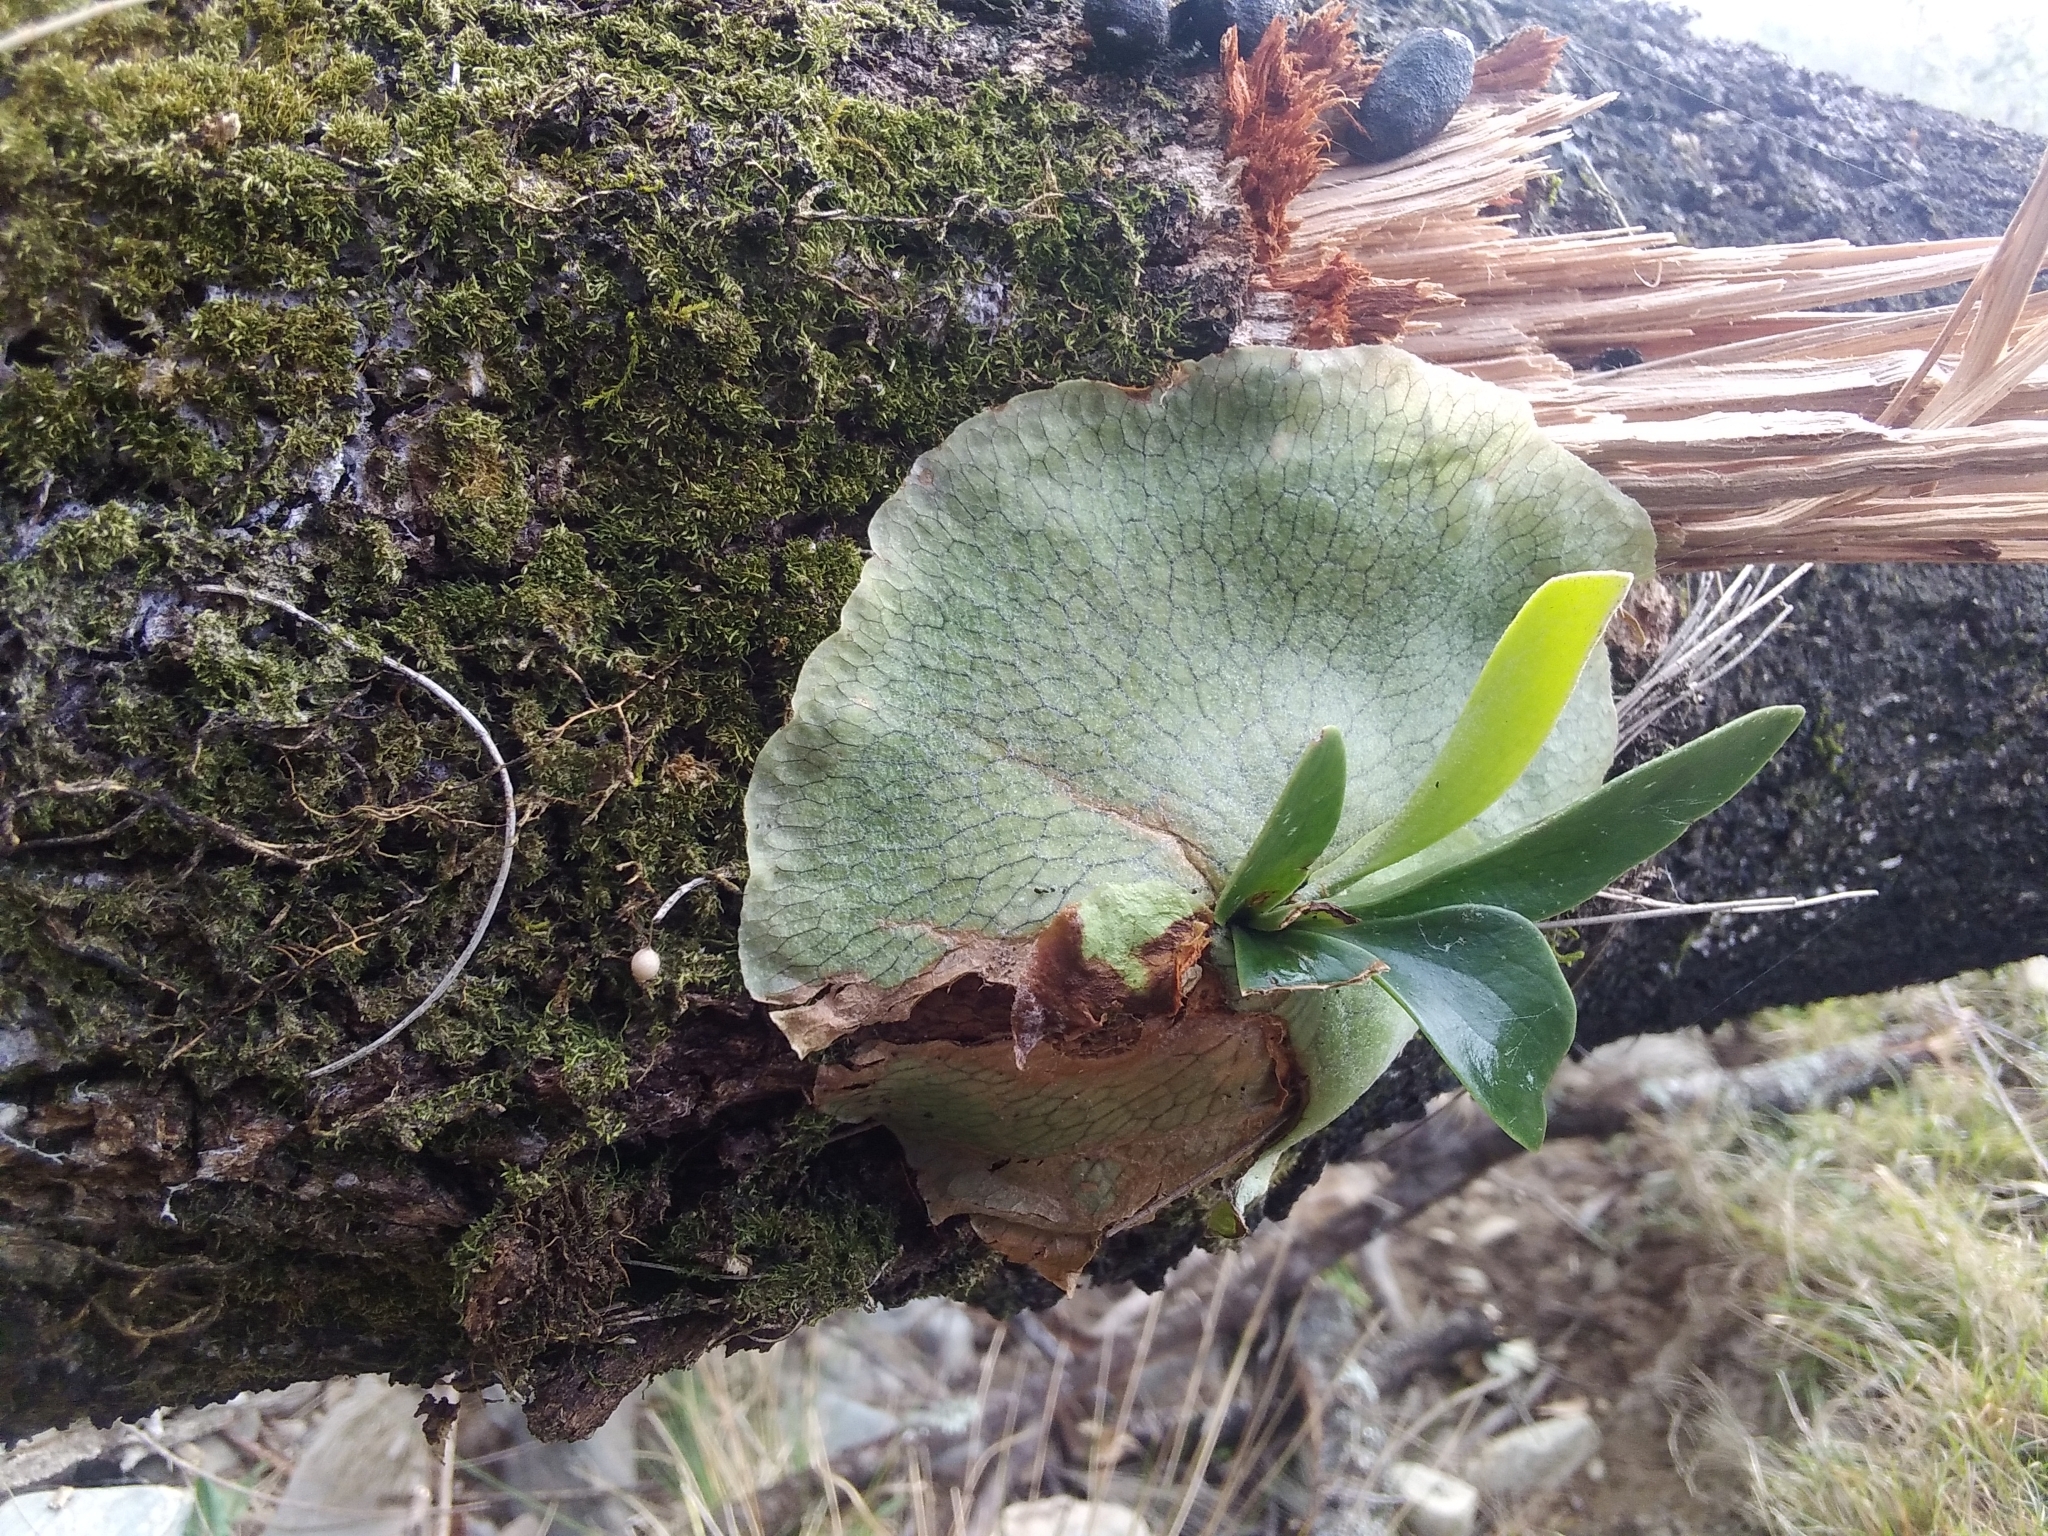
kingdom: Plantae
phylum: Tracheophyta
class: Polypodiopsida
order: Polypodiales
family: Polypodiaceae
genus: Platycerium
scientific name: Platycerium bifurcatum
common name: Elkhorn fern
